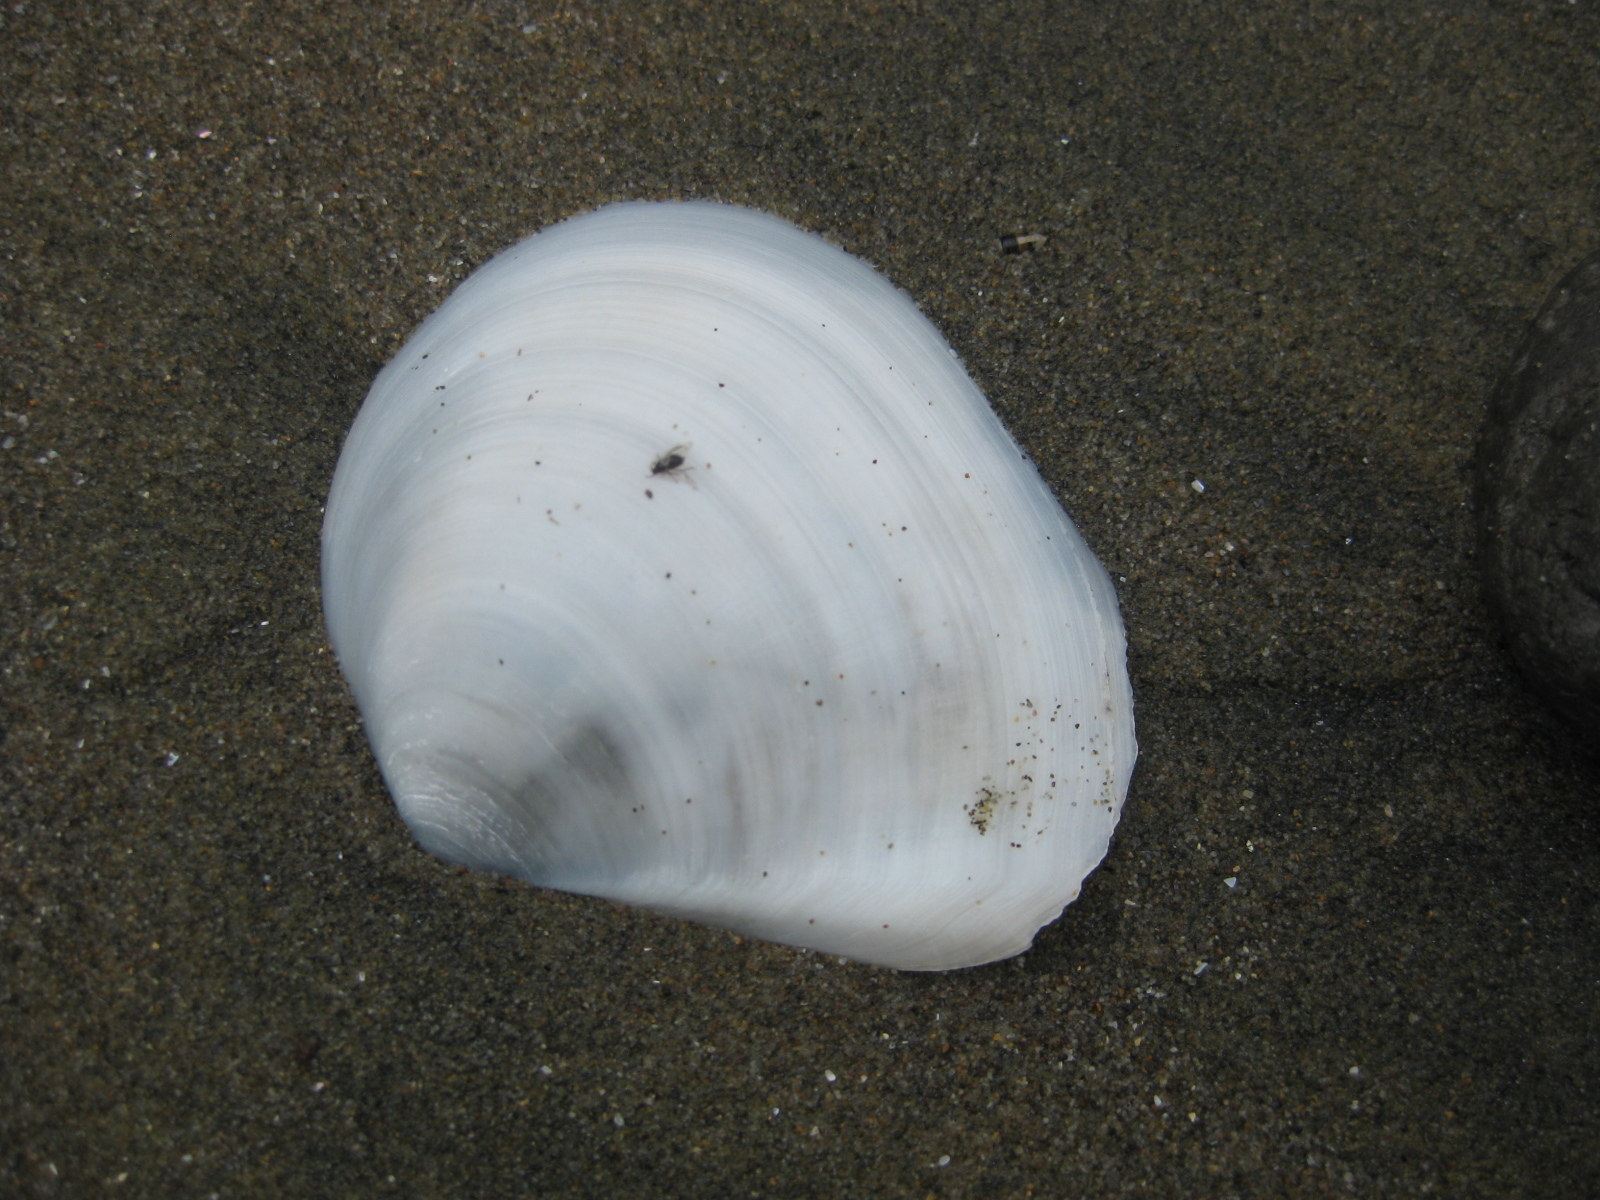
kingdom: Animalia
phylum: Mollusca
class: Bivalvia
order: Cardiida
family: Tellinidae
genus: Macomona
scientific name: Macomona liliana
